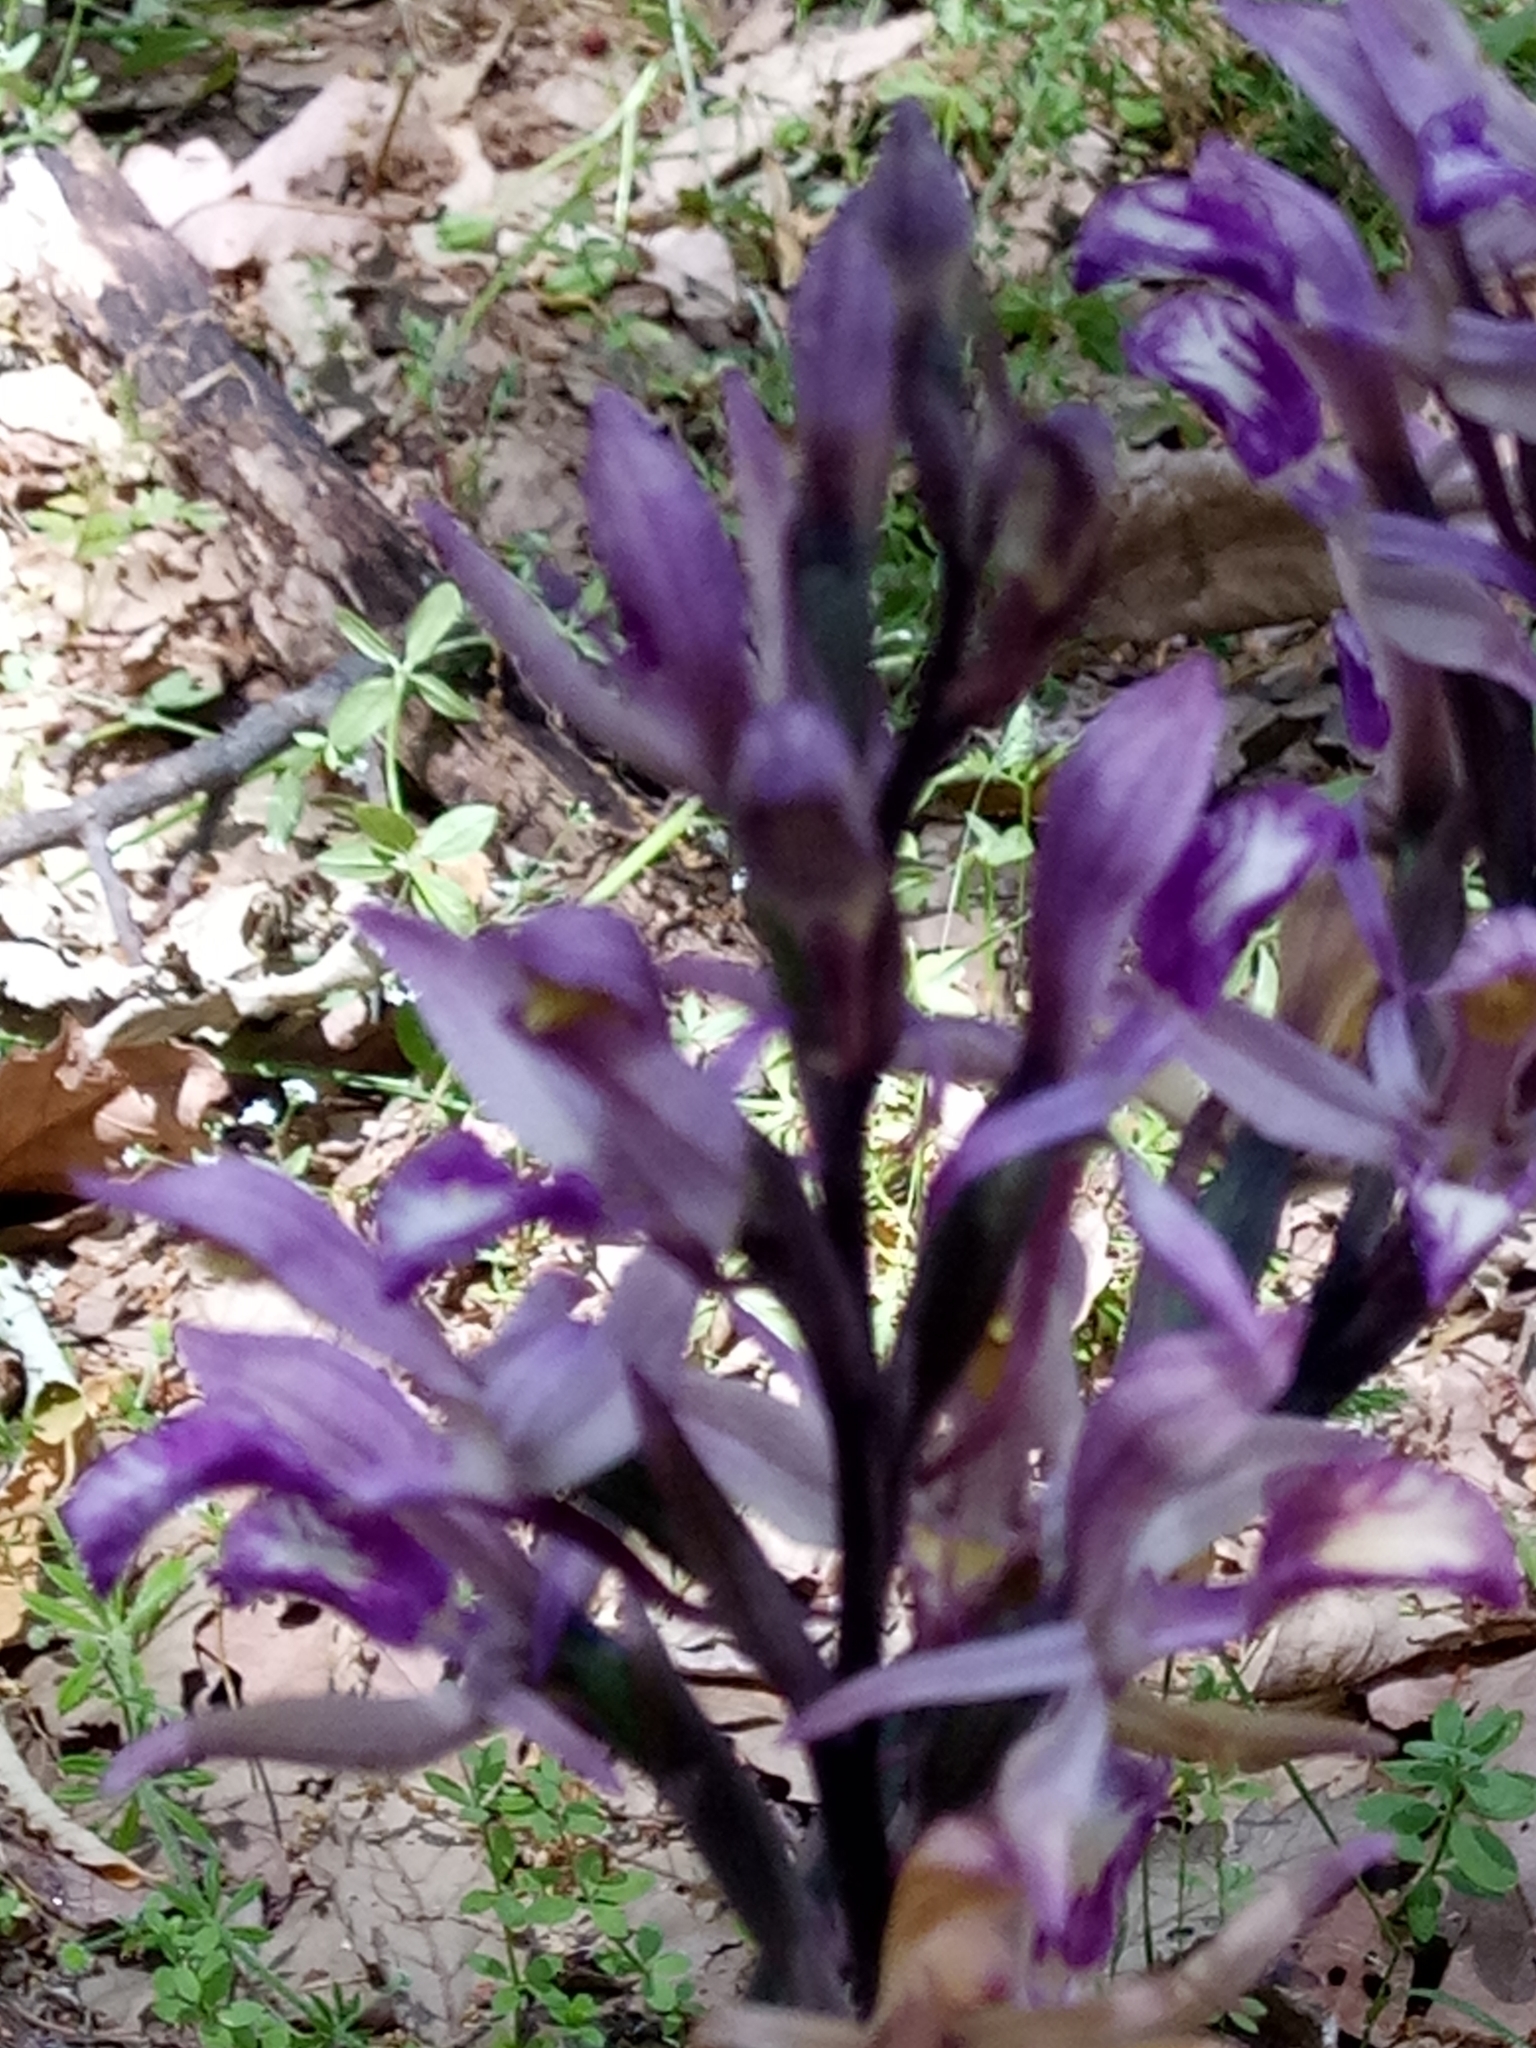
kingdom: Plantae
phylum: Tracheophyta
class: Liliopsida
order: Asparagales
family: Orchidaceae
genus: Limodorum
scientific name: Limodorum abortivum
